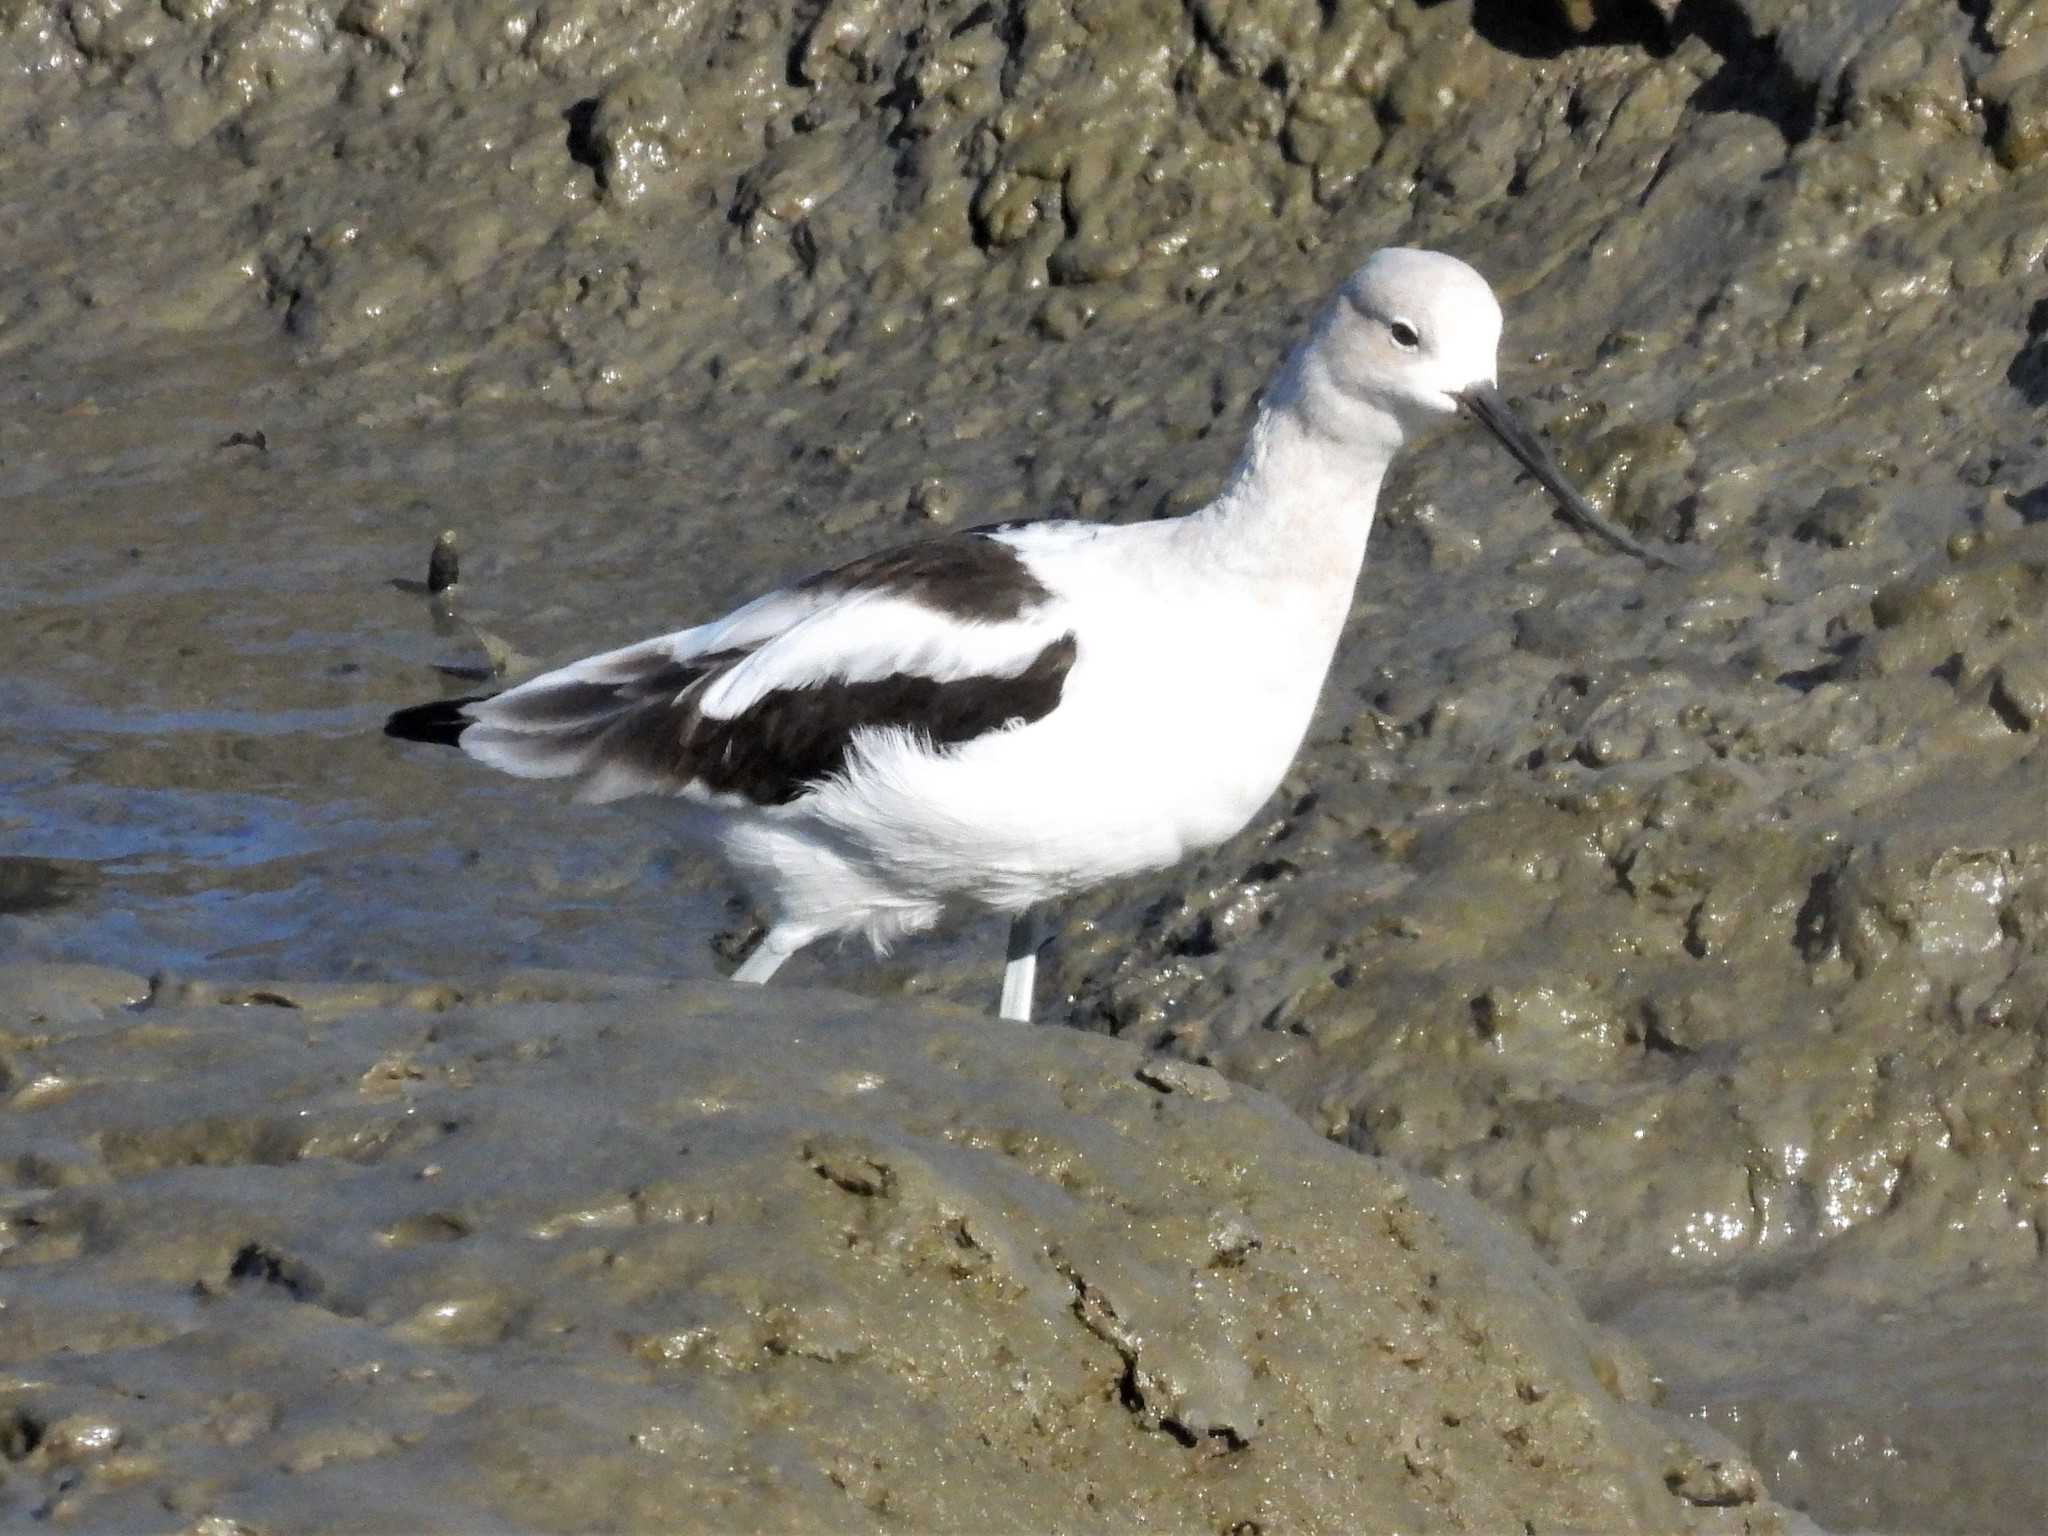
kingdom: Animalia
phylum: Chordata
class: Aves
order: Charadriiformes
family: Recurvirostridae
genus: Recurvirostra
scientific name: Recurvirostra americana
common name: American avocet
